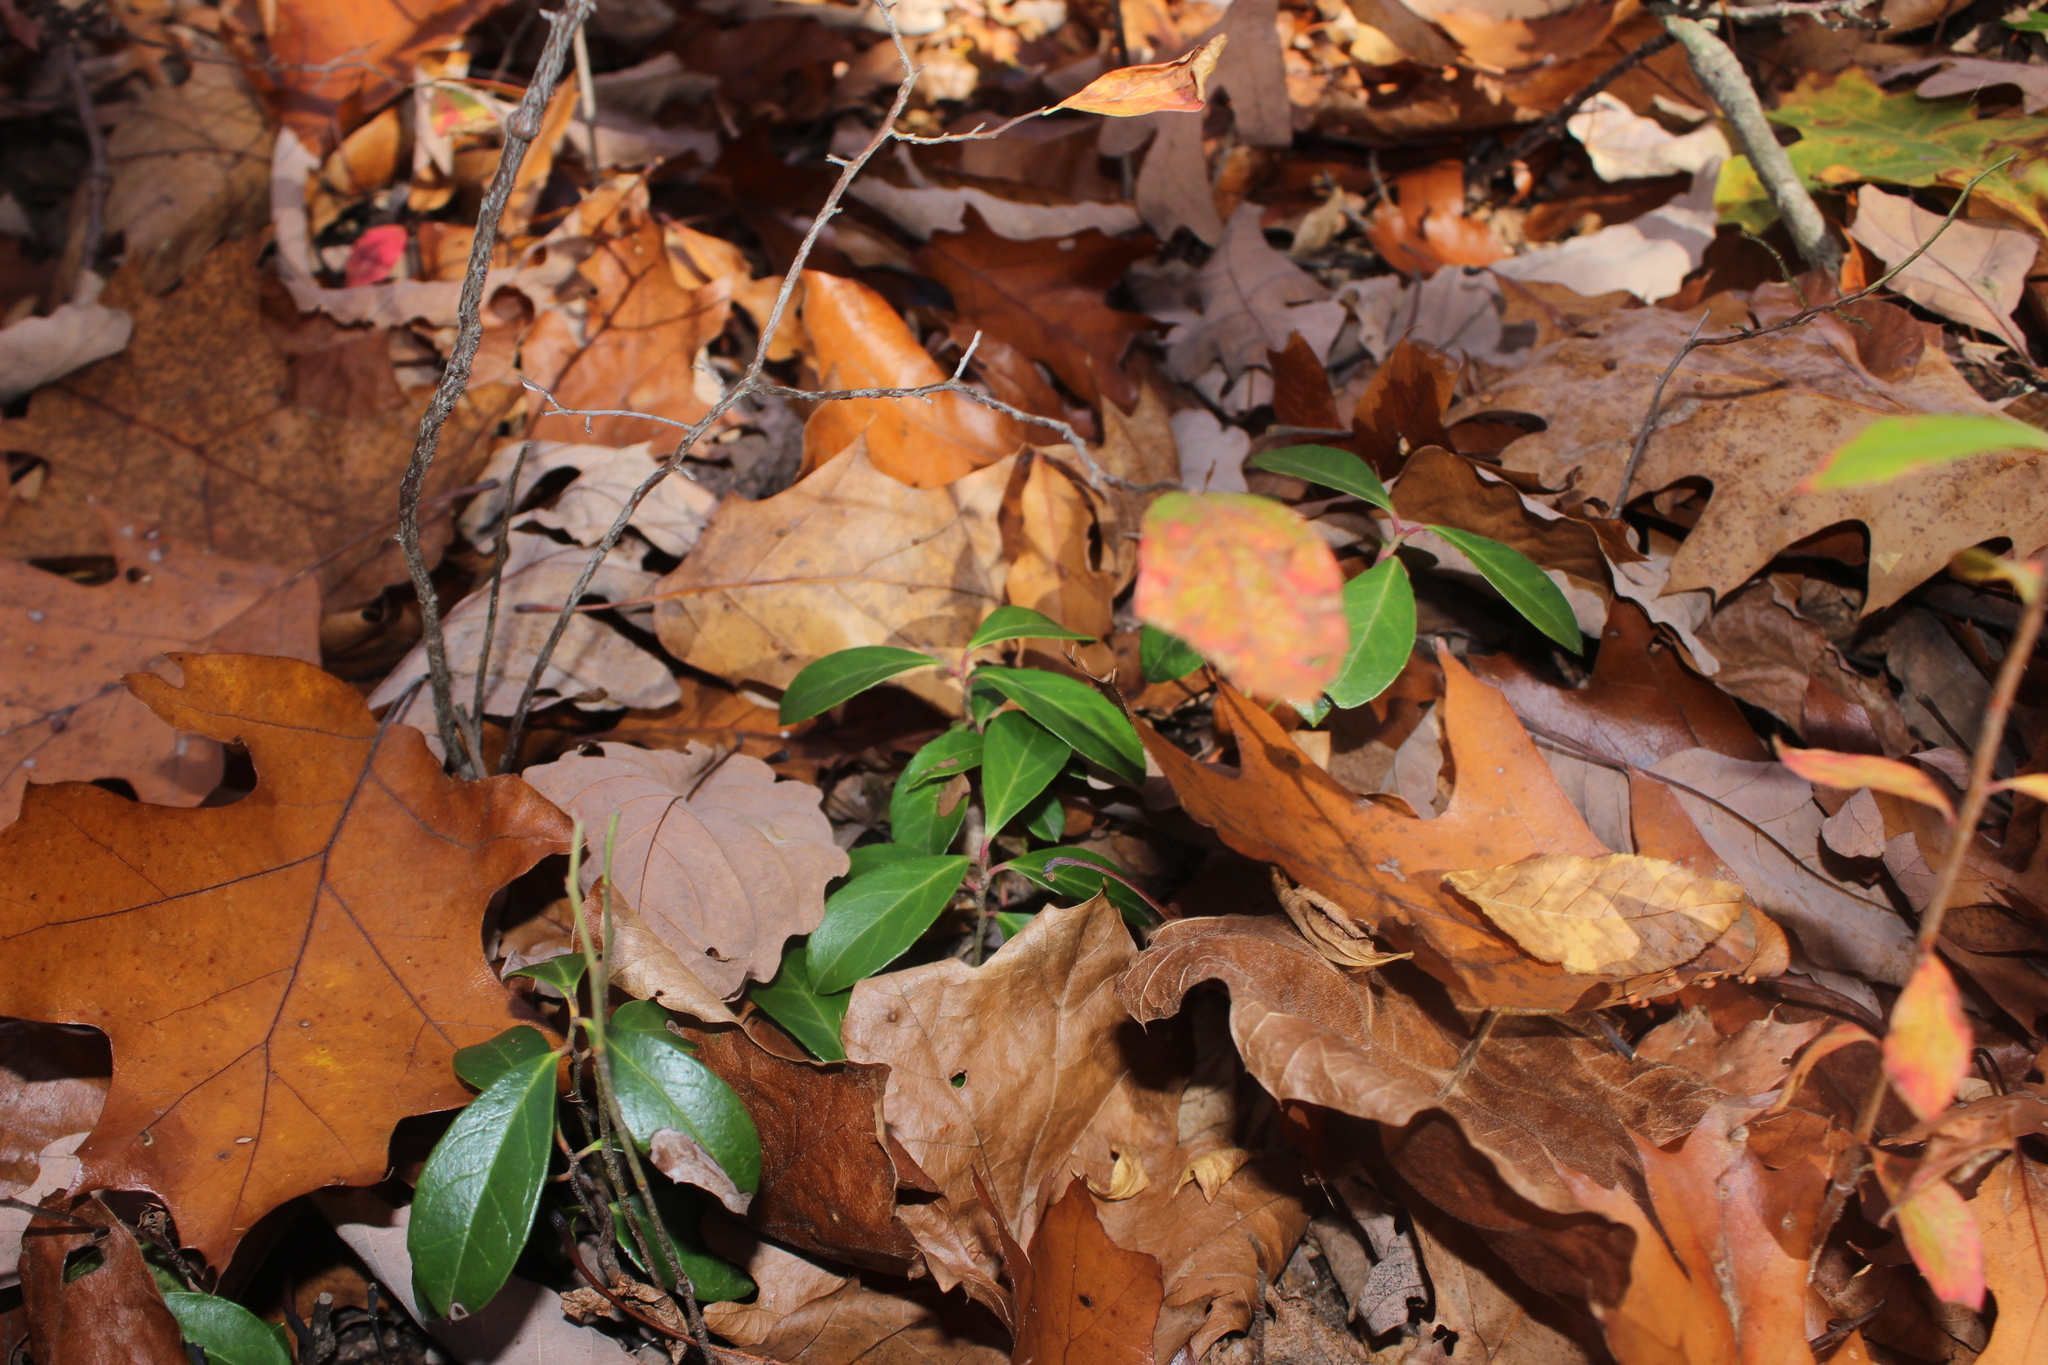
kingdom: Plantae
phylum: Tracheophyta
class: Magnoliopsida
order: Ericales
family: Ericaceae
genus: Gaultheria
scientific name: Gaultheria procumbens
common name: Checkerberry
